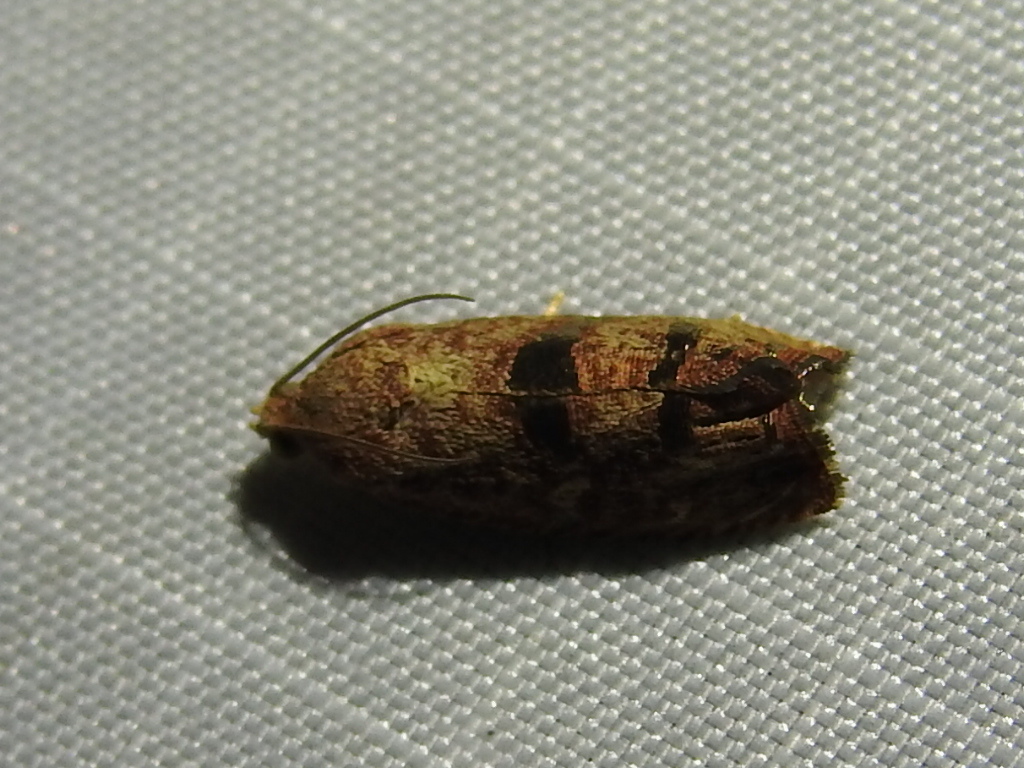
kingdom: Animalia
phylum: Arthropoda
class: Insecta
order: Lepidoptera
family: Tortricidae
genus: Cydia
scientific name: Cydia latiferreana
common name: Filbertworm moth
